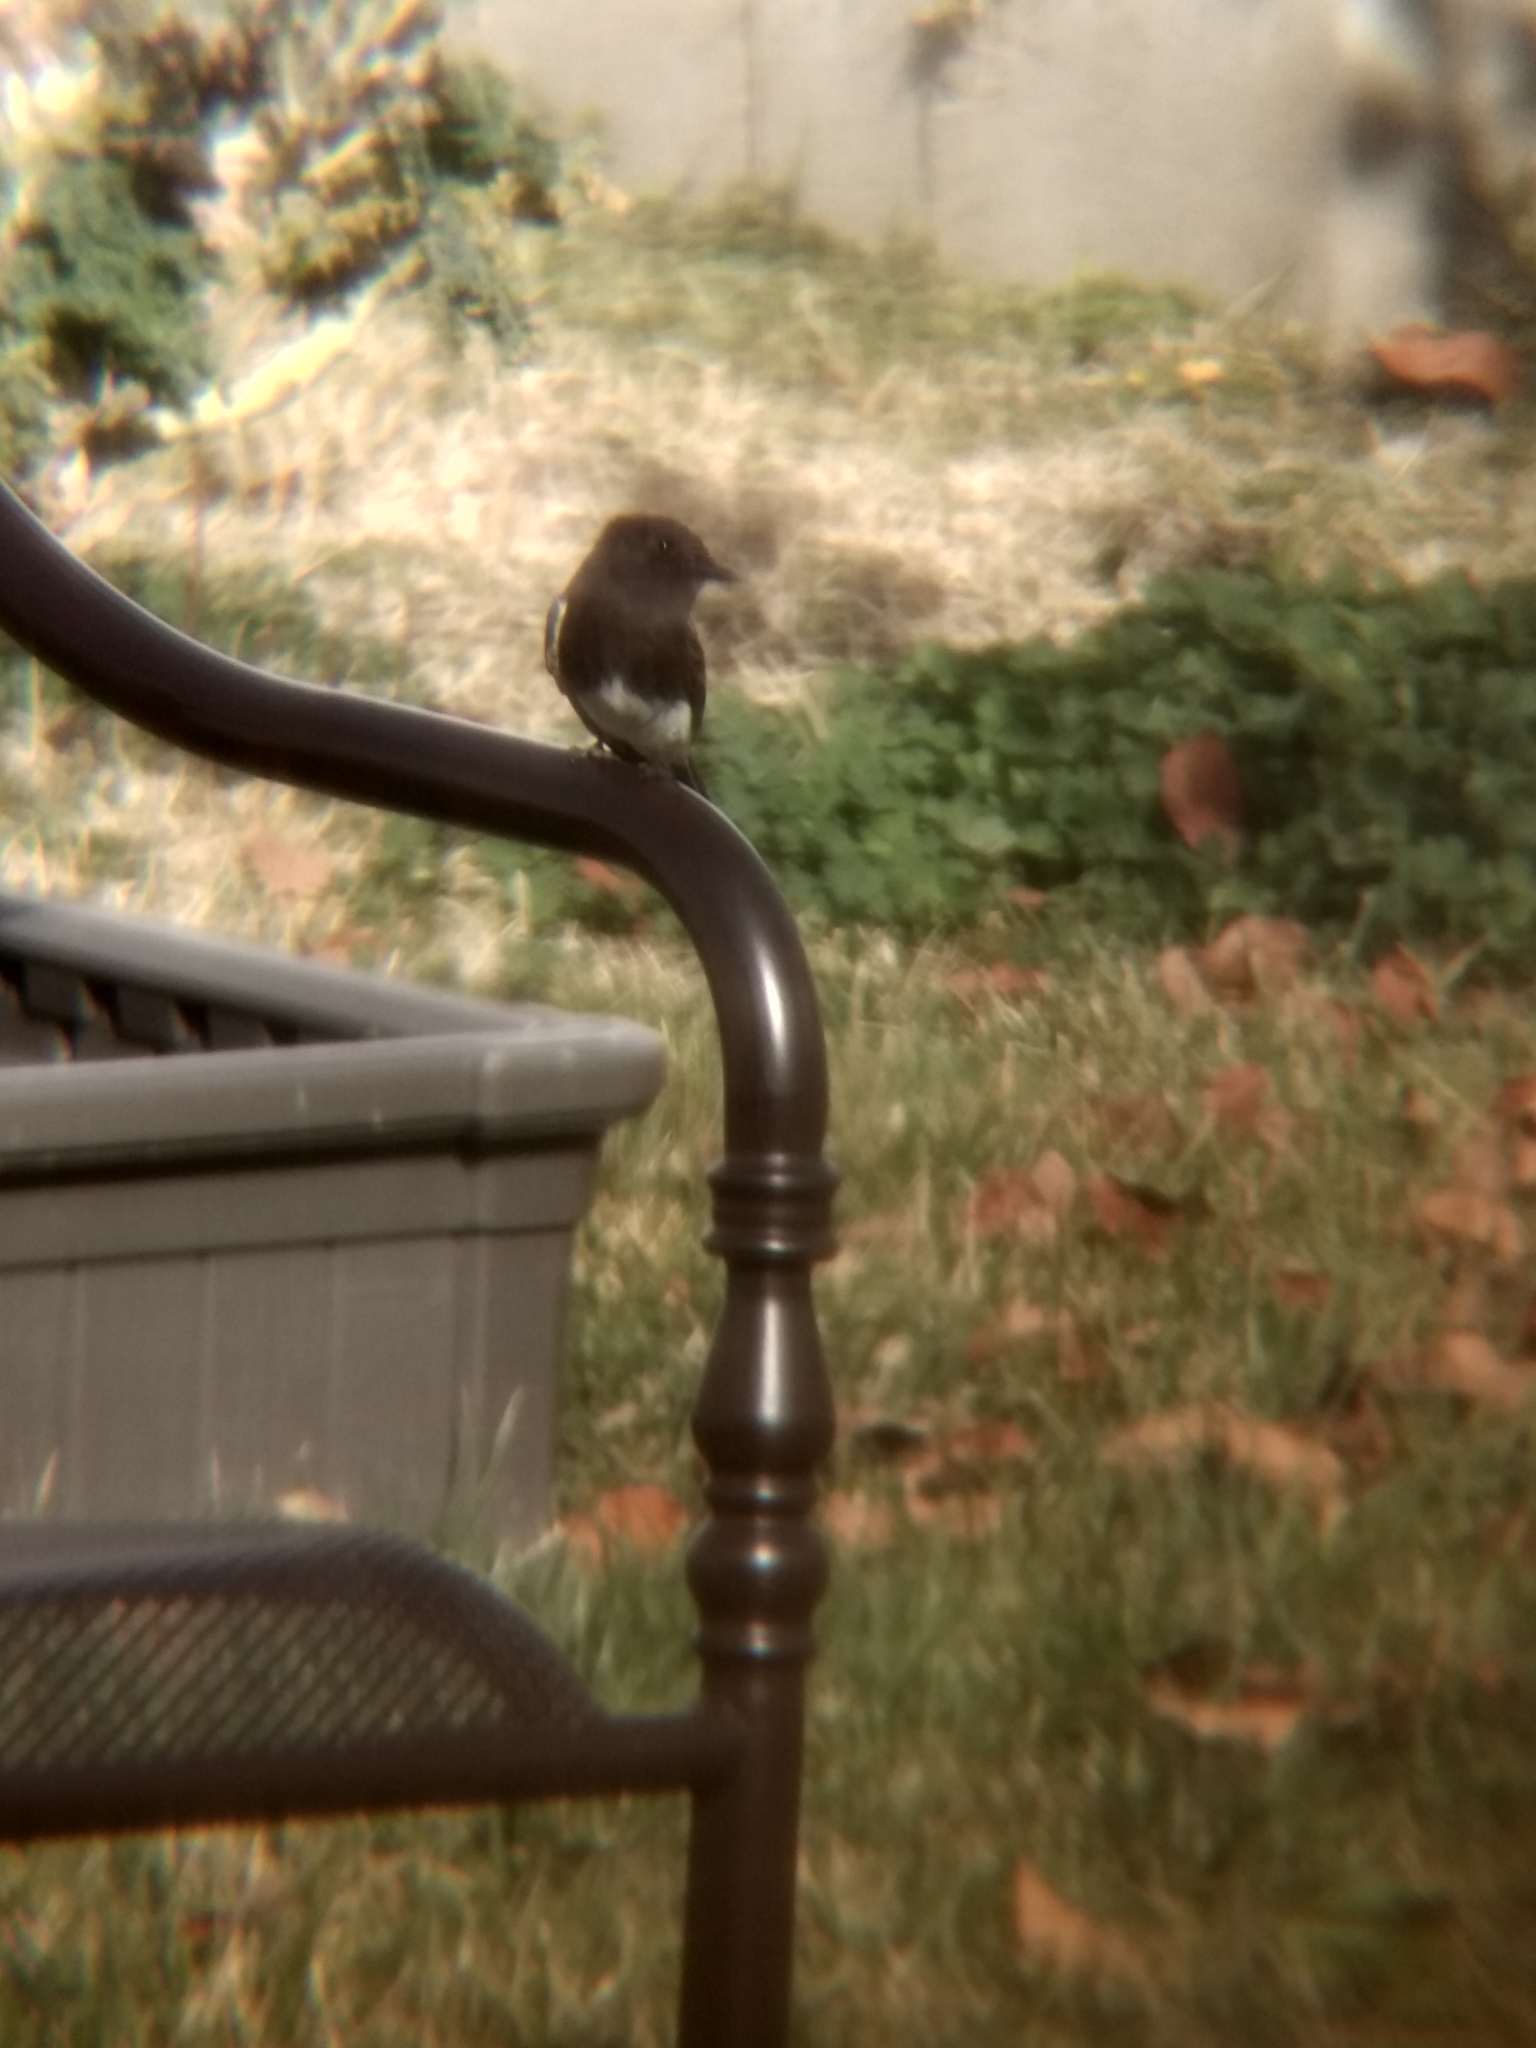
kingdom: Animalia
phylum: Chordata
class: Aves
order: Passeriformes
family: Tyrannidae
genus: Sayornis
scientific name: Sayornis nigricans
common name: Black phoebe
